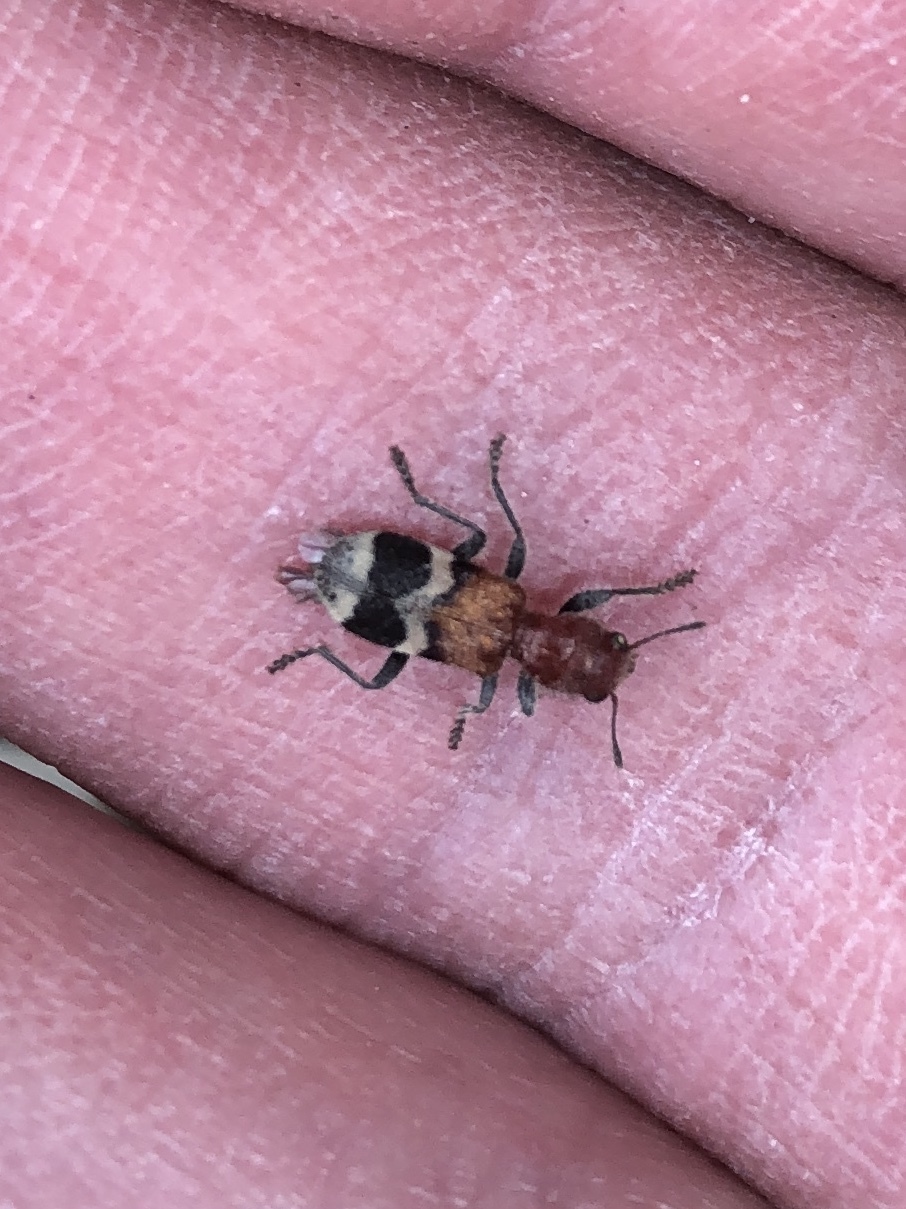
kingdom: Animalia
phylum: Arthropoda
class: Insecta
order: Coleoptera
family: Cleridae
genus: Enoclerus
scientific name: Enoclerus nigripes
